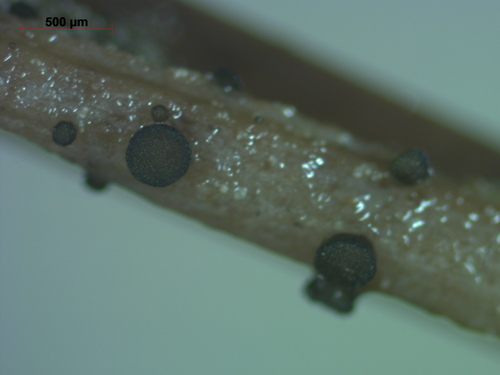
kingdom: Fungi
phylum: Ascomycota
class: Leotiomycetes
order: Helotiales
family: Mollisiaceae
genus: Niptera
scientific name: Niptera
